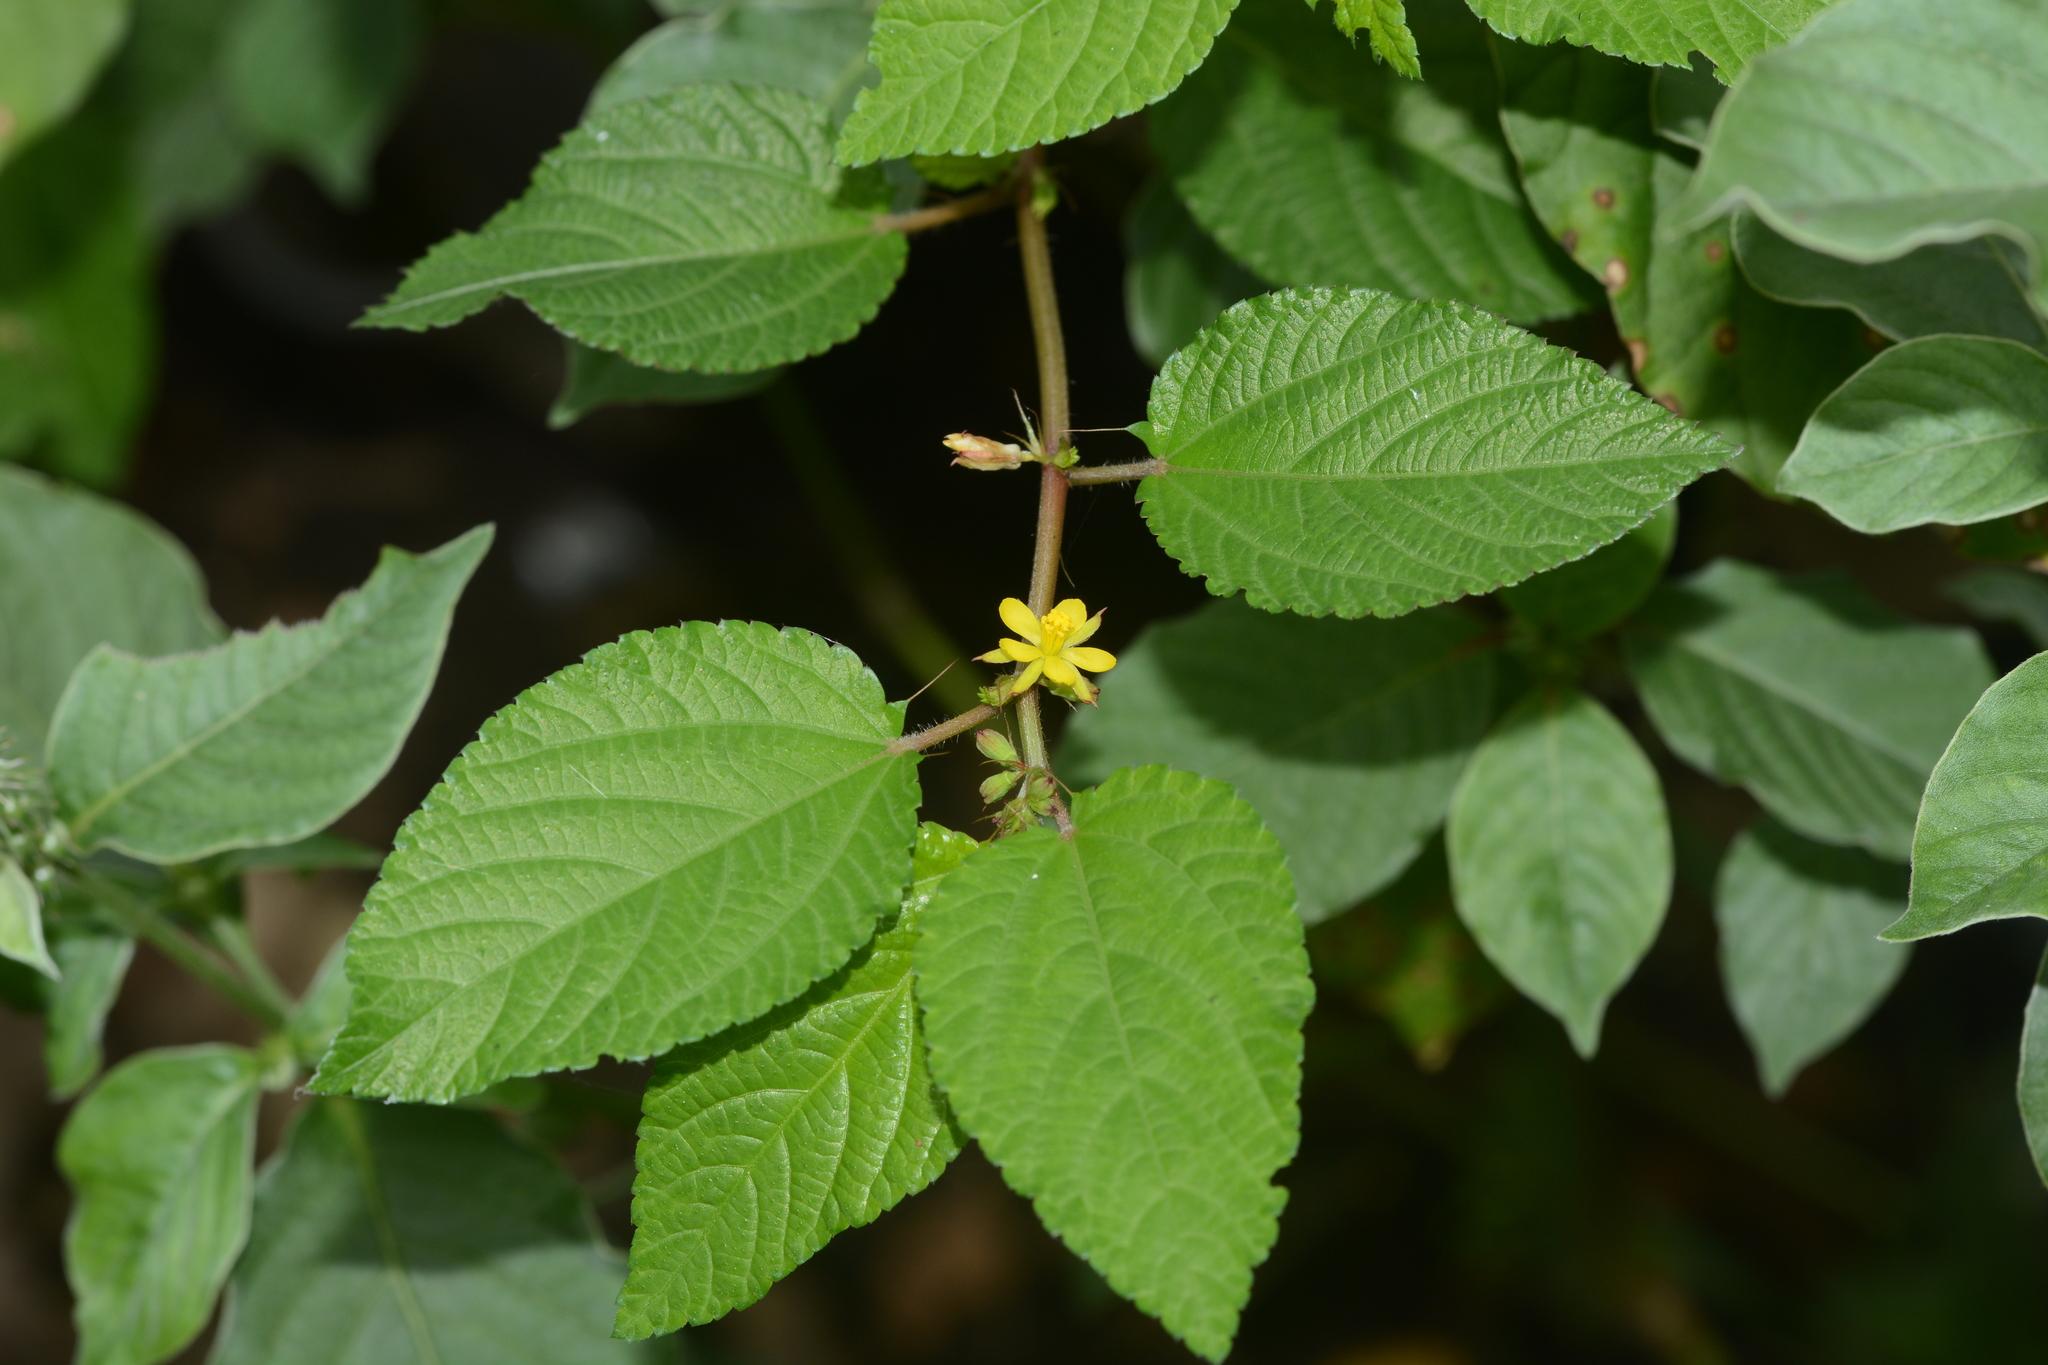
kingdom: Plantae
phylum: Tracheophyta
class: Magnoliopsida
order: Malvales
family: Malvaceae
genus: Corchorus
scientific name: Corchorus capsularis
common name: Jute
